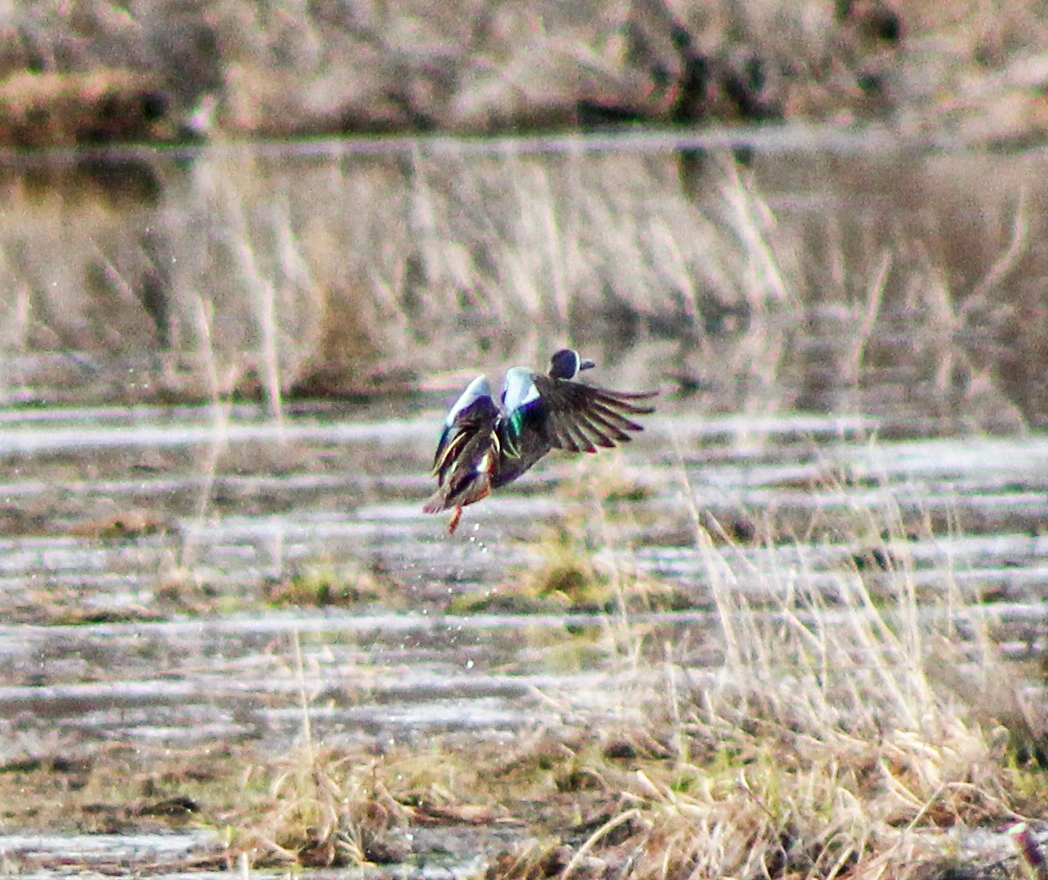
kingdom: Animalia
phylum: Chordata
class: Aves
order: Anseriformes
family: Anatidae
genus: Spatula
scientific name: Spatula discors
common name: Blue-winged teal
